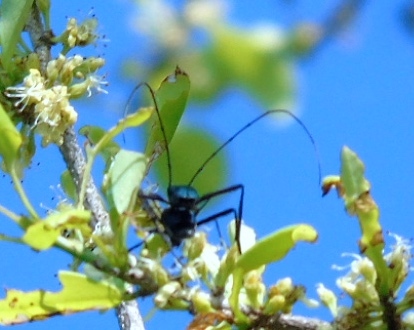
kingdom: Animalia
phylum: Arthropoda
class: Insecta
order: Coleoptera
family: Cerambycidae
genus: Pseudodeltaspis
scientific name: Pseudodeltaspis cyanea
